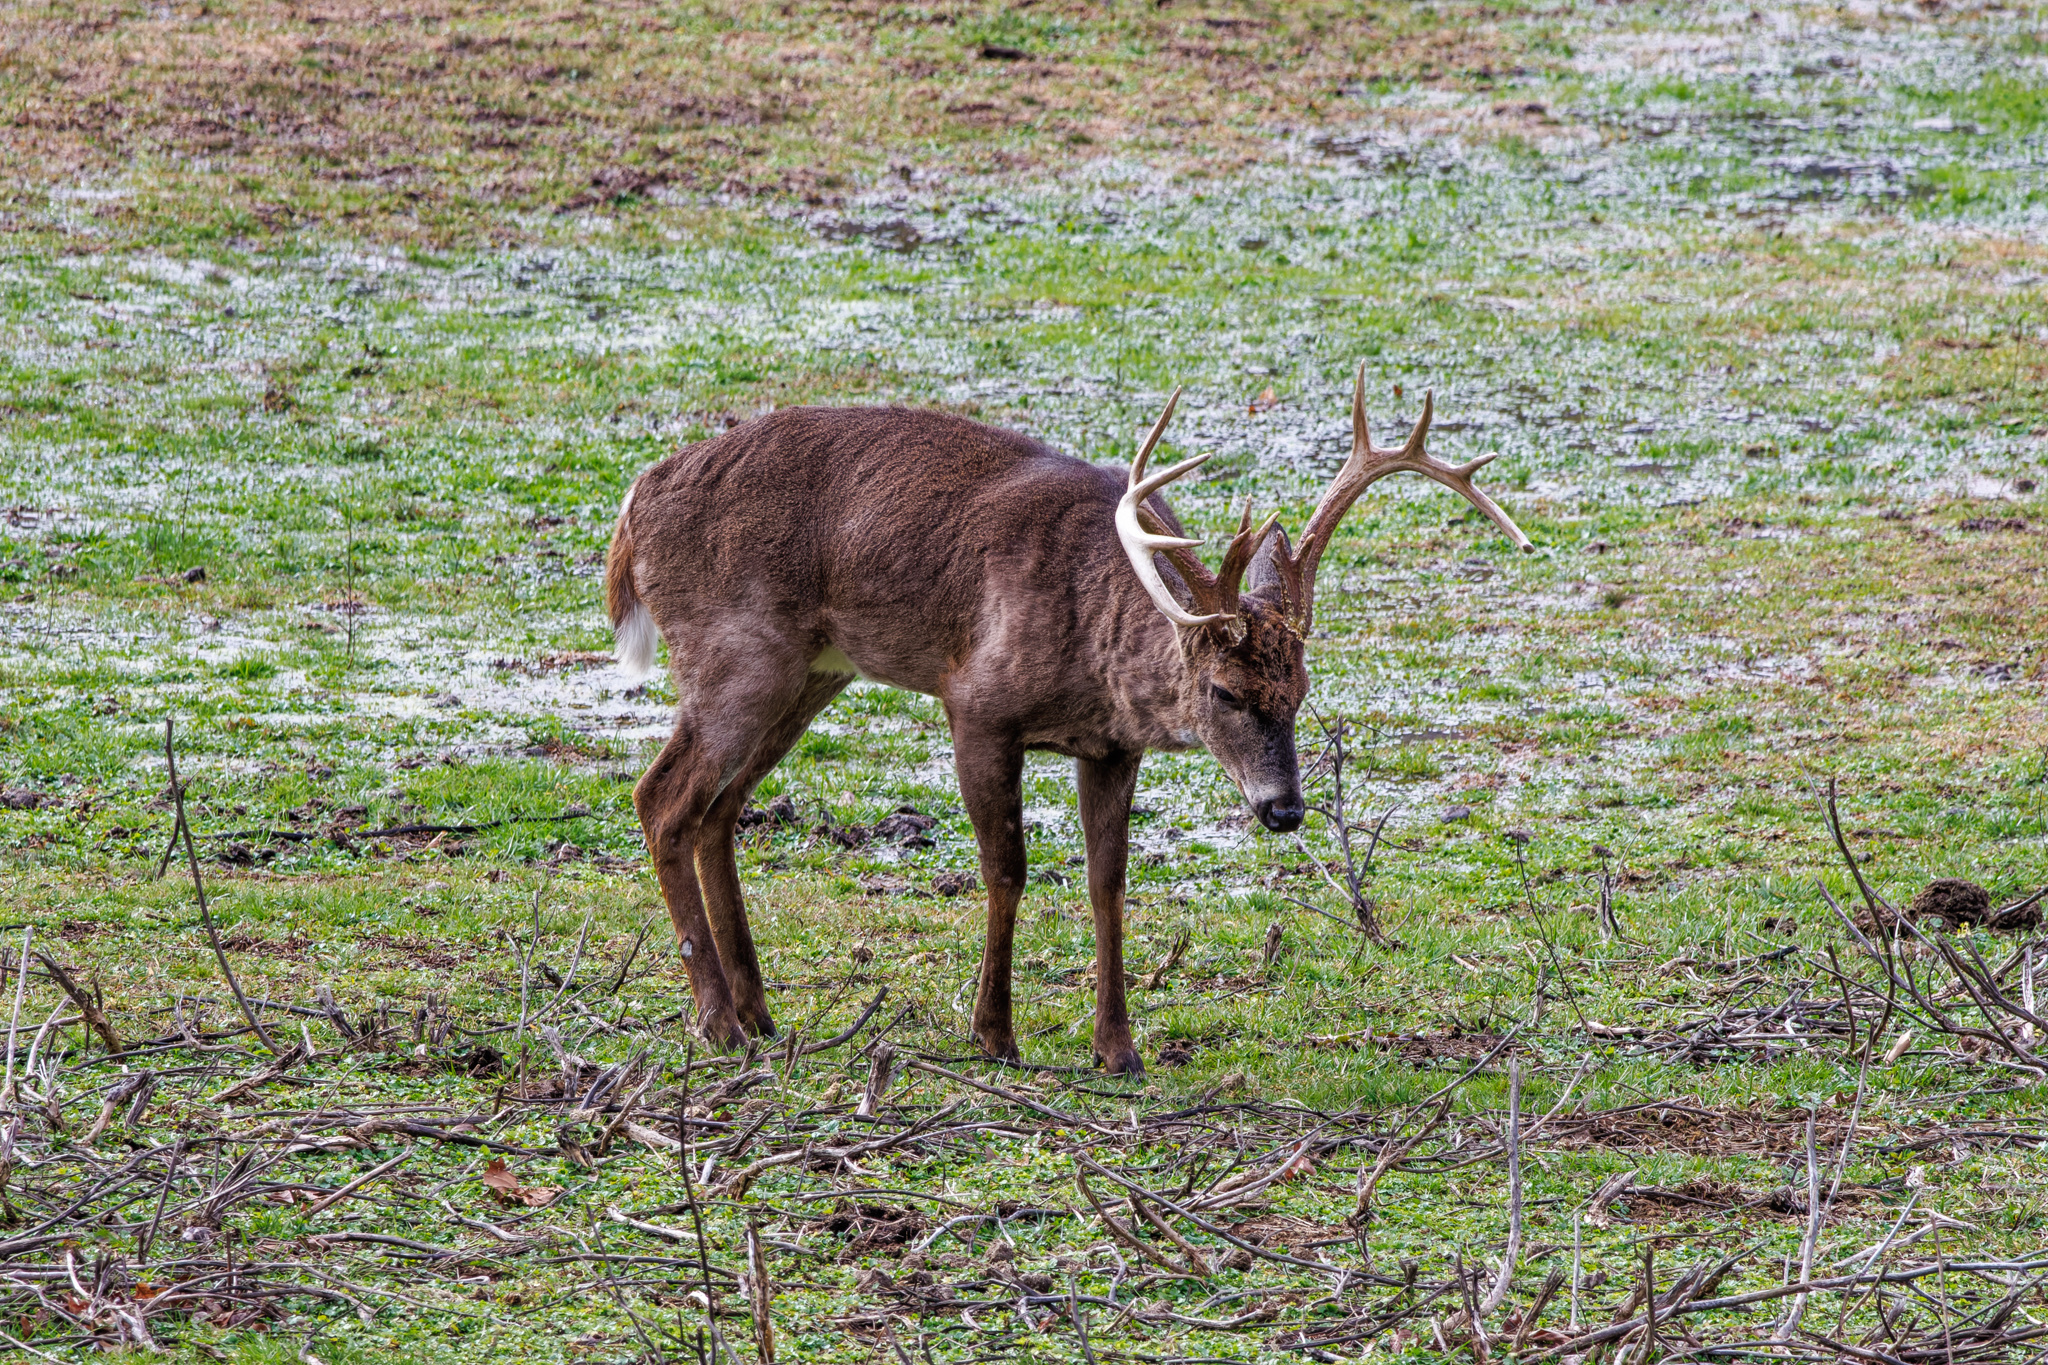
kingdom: Animalia
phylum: Chordata
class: Mammalia
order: Artiodactyla
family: Cervidae
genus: Odocoileus
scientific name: Odocoileus virginianus
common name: White-tailed deer
